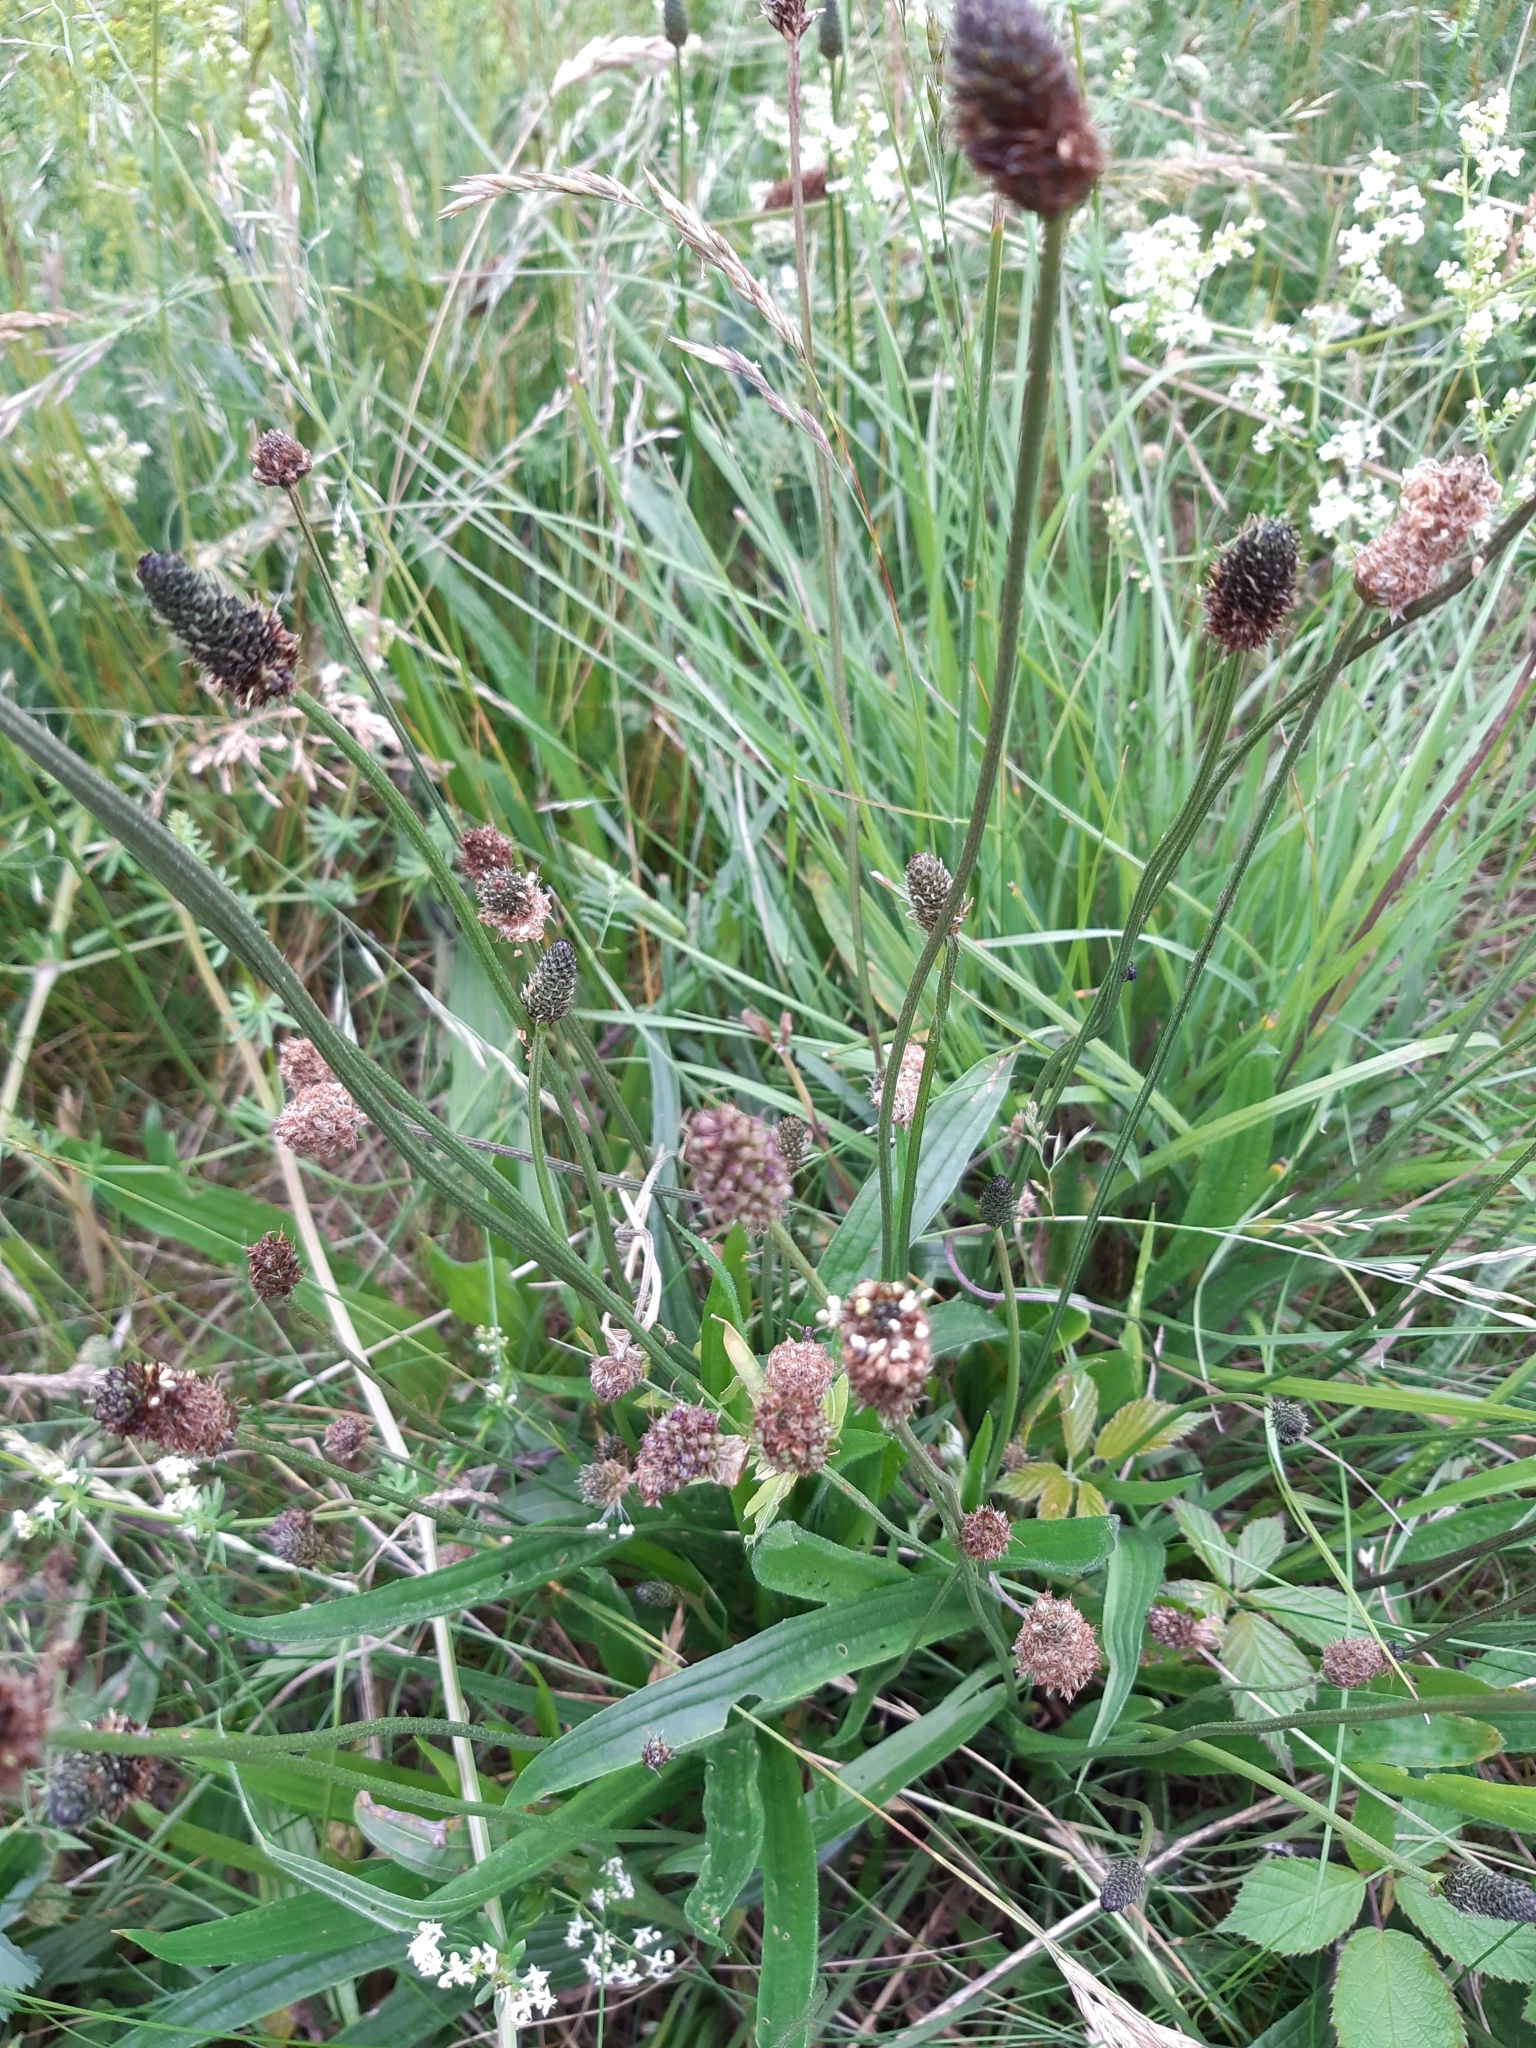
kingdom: Plantae
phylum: Tracheophyta
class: Magnoliopsida
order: Lamiales
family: Plantaginaceae
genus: Plantago
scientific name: Plantago lanceolata
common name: Ribwort plantain
